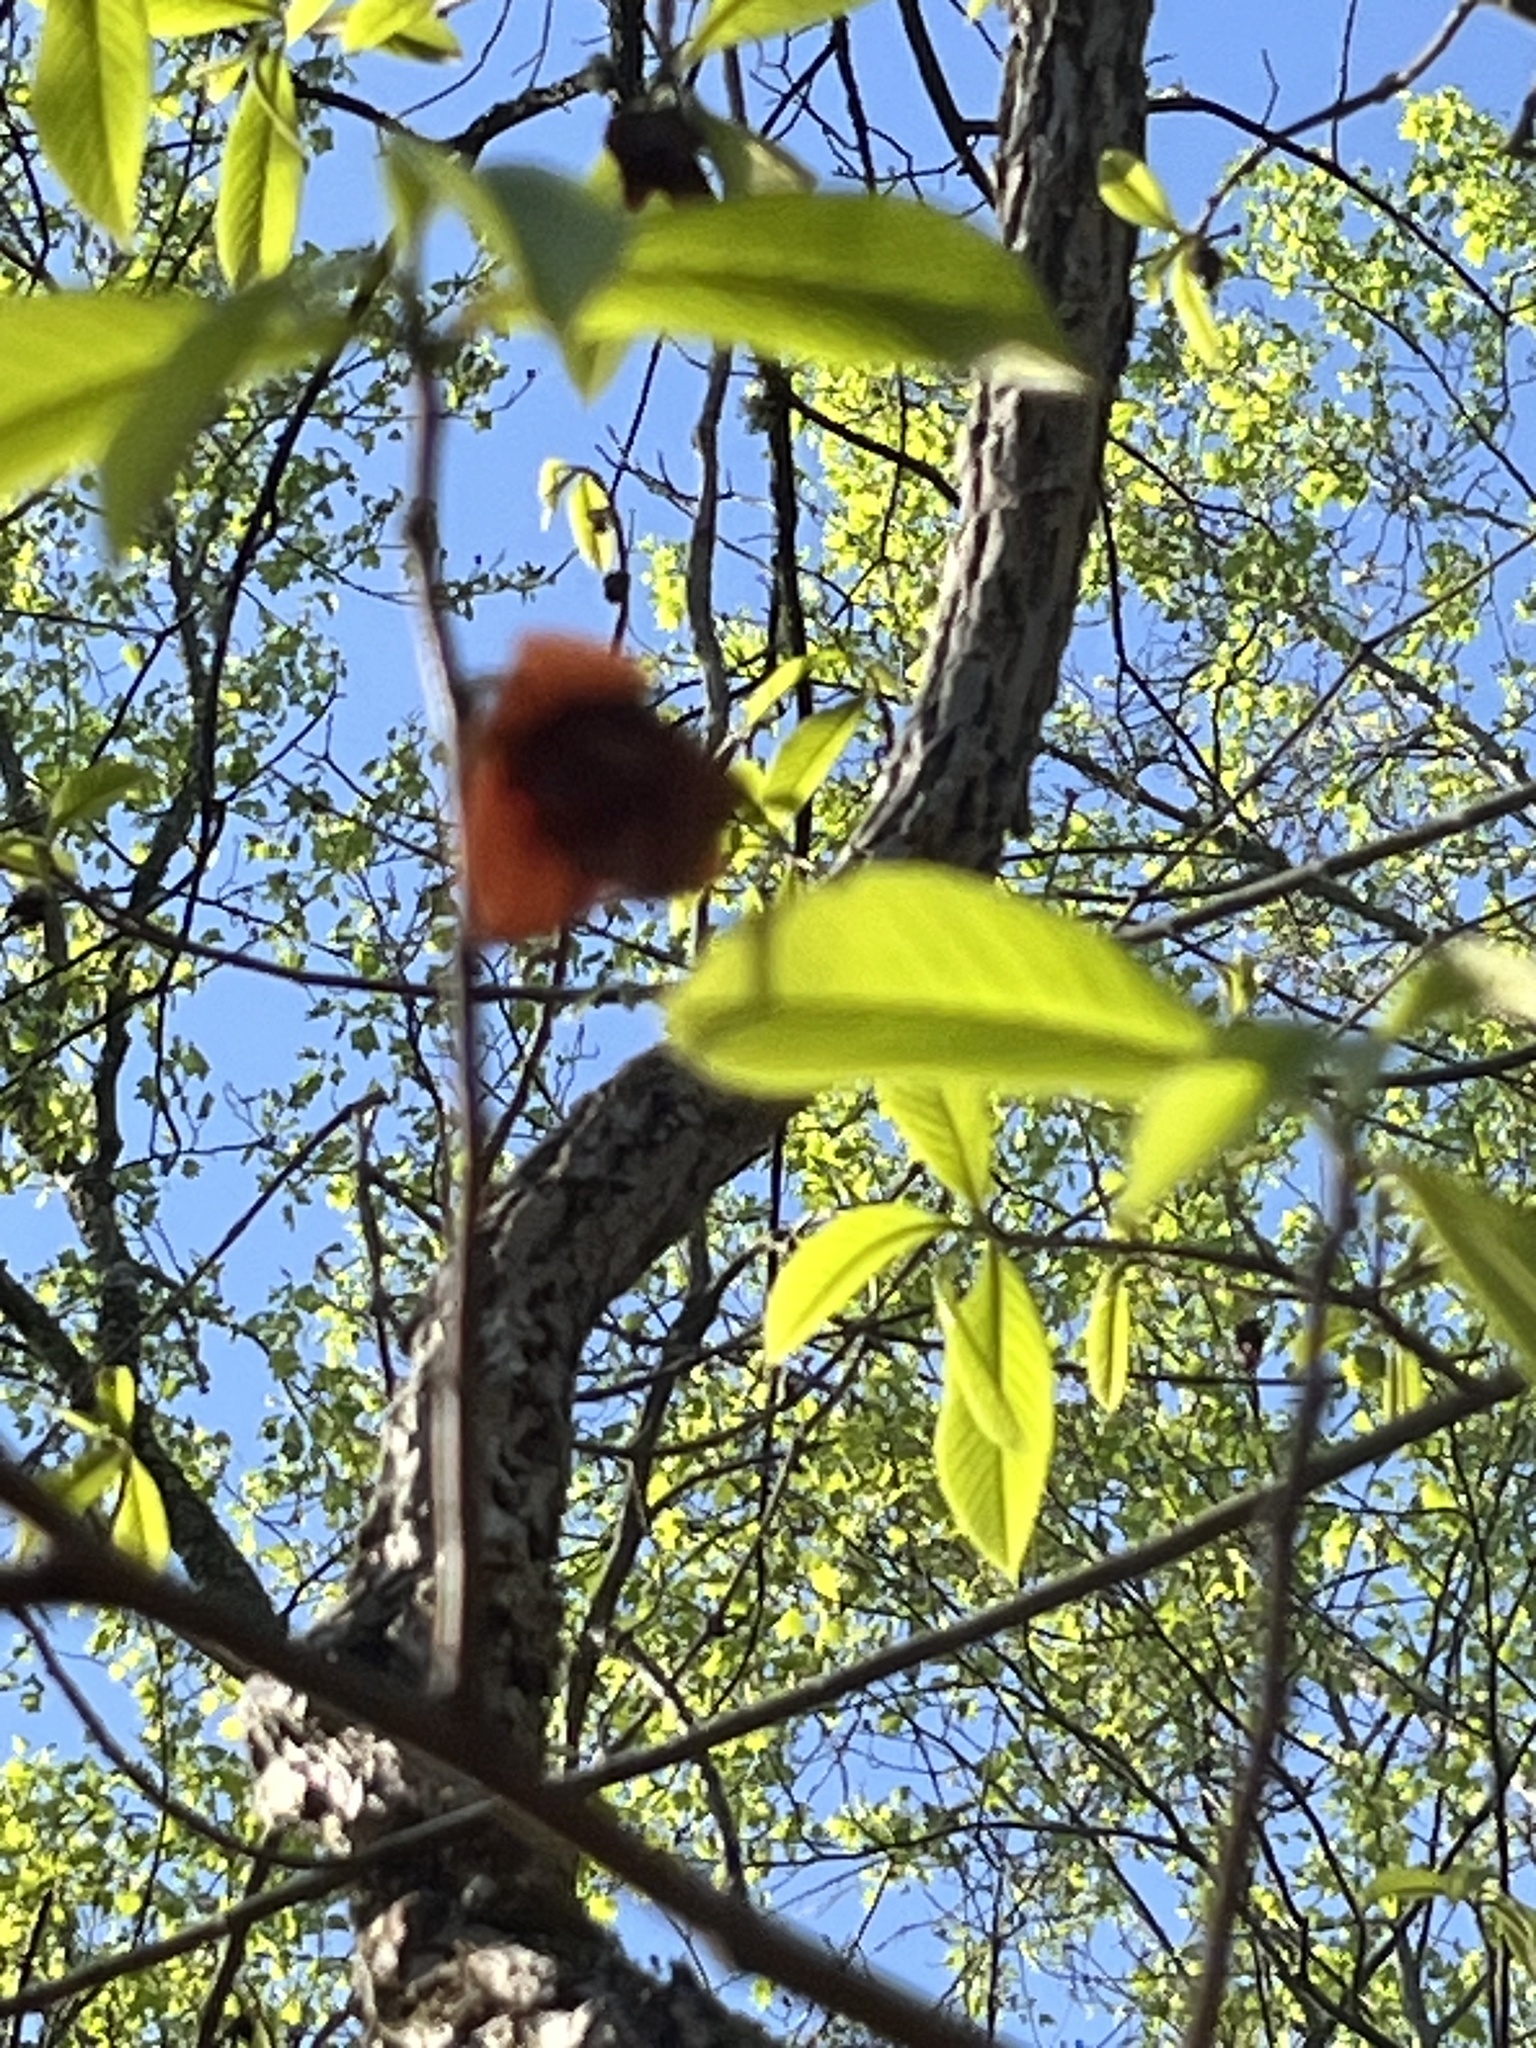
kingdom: Plantae
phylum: Tracheophyta
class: Magnoliopsida
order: Magnoliales
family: Annonaceae
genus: Asimina
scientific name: Asimina triloba
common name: Dog-banana
